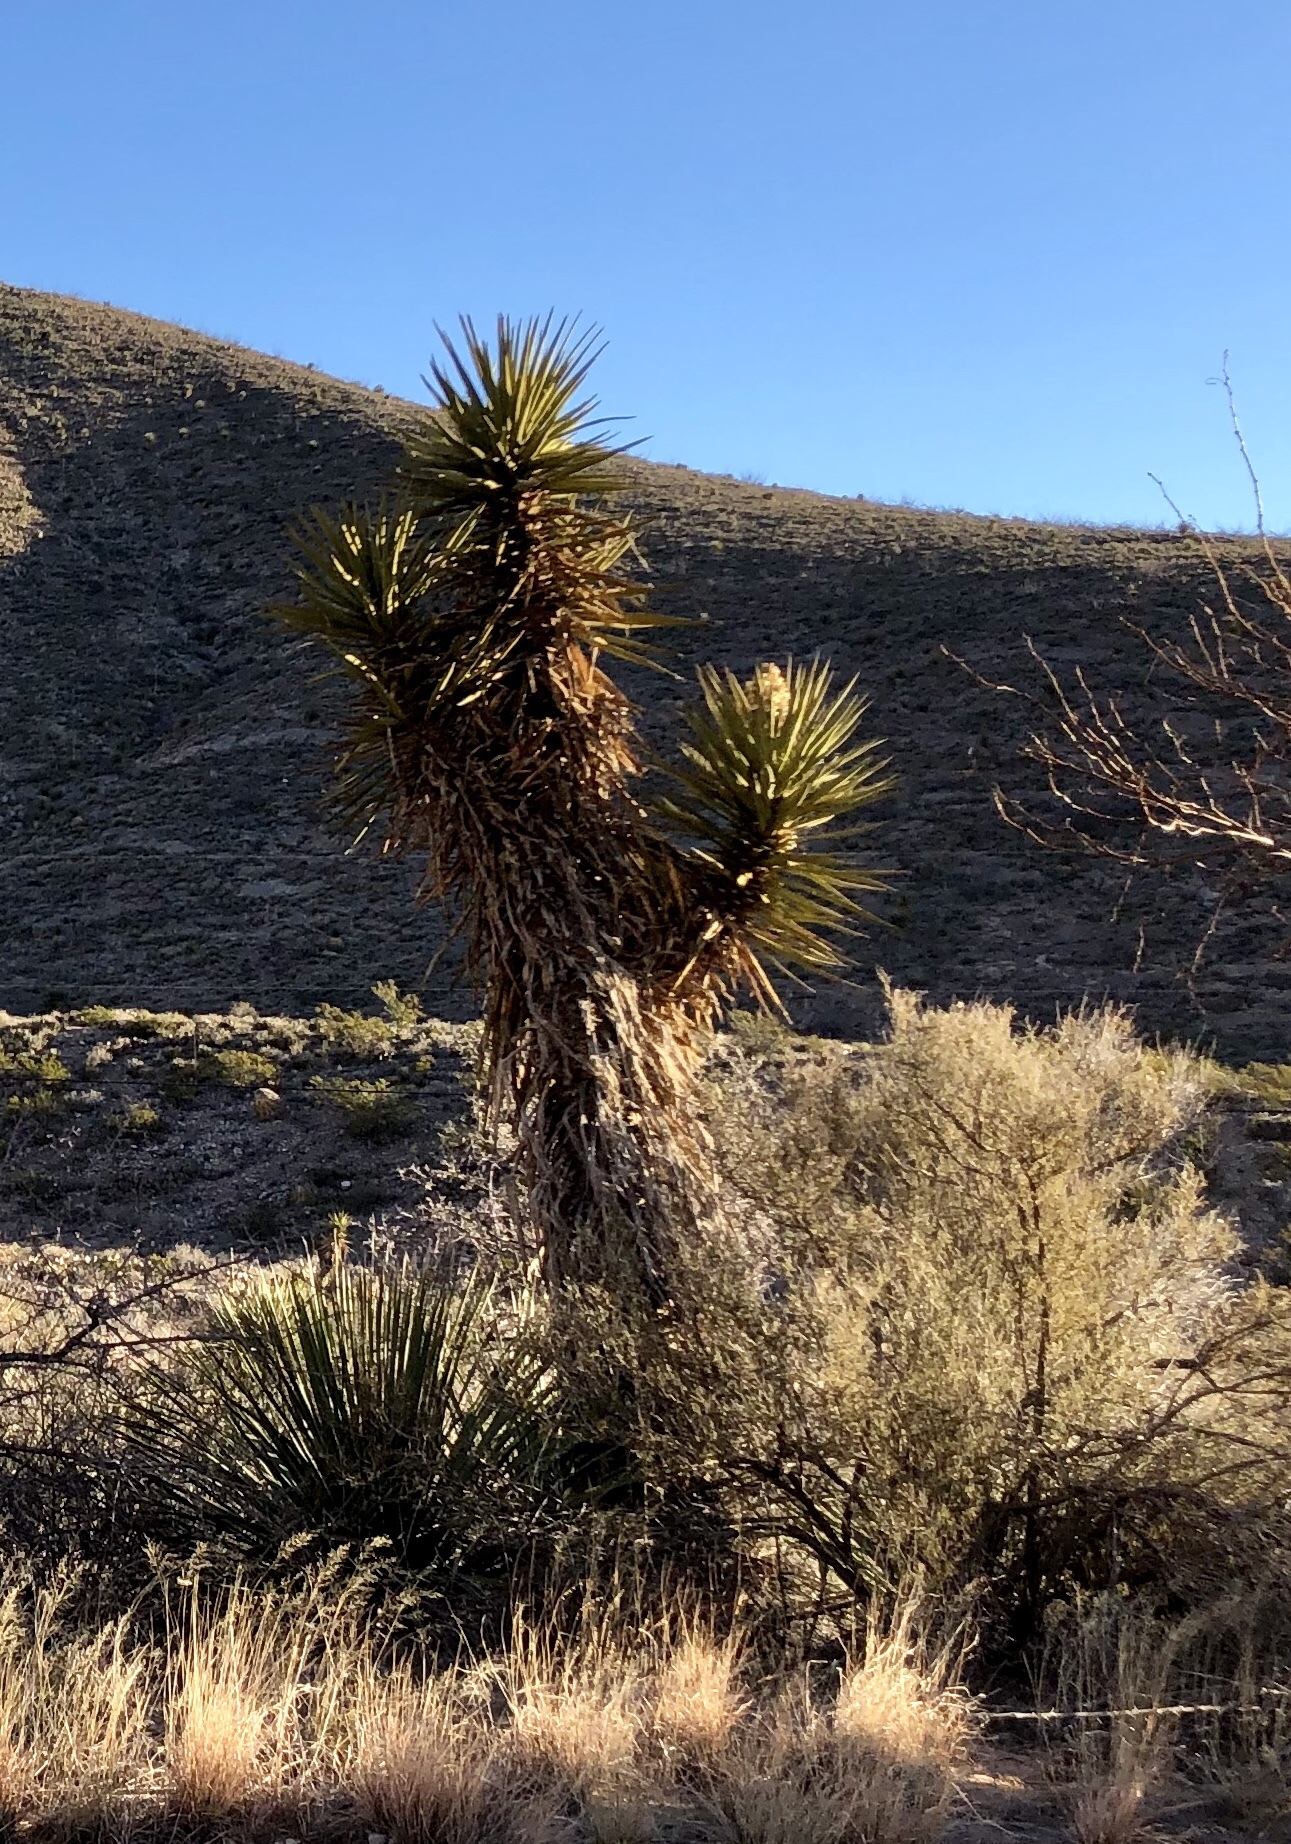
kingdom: Plantae
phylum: Tracheophyta
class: Liliopsida
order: Asparagales
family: Asparagaceae
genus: Yucca
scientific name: Yucca treculiana
